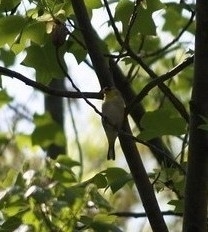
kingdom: Animalia
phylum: Chordata
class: Aves
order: Passeriformes
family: Fringillidae
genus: Spinus
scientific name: Spinus tristis
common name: American goldfinch
